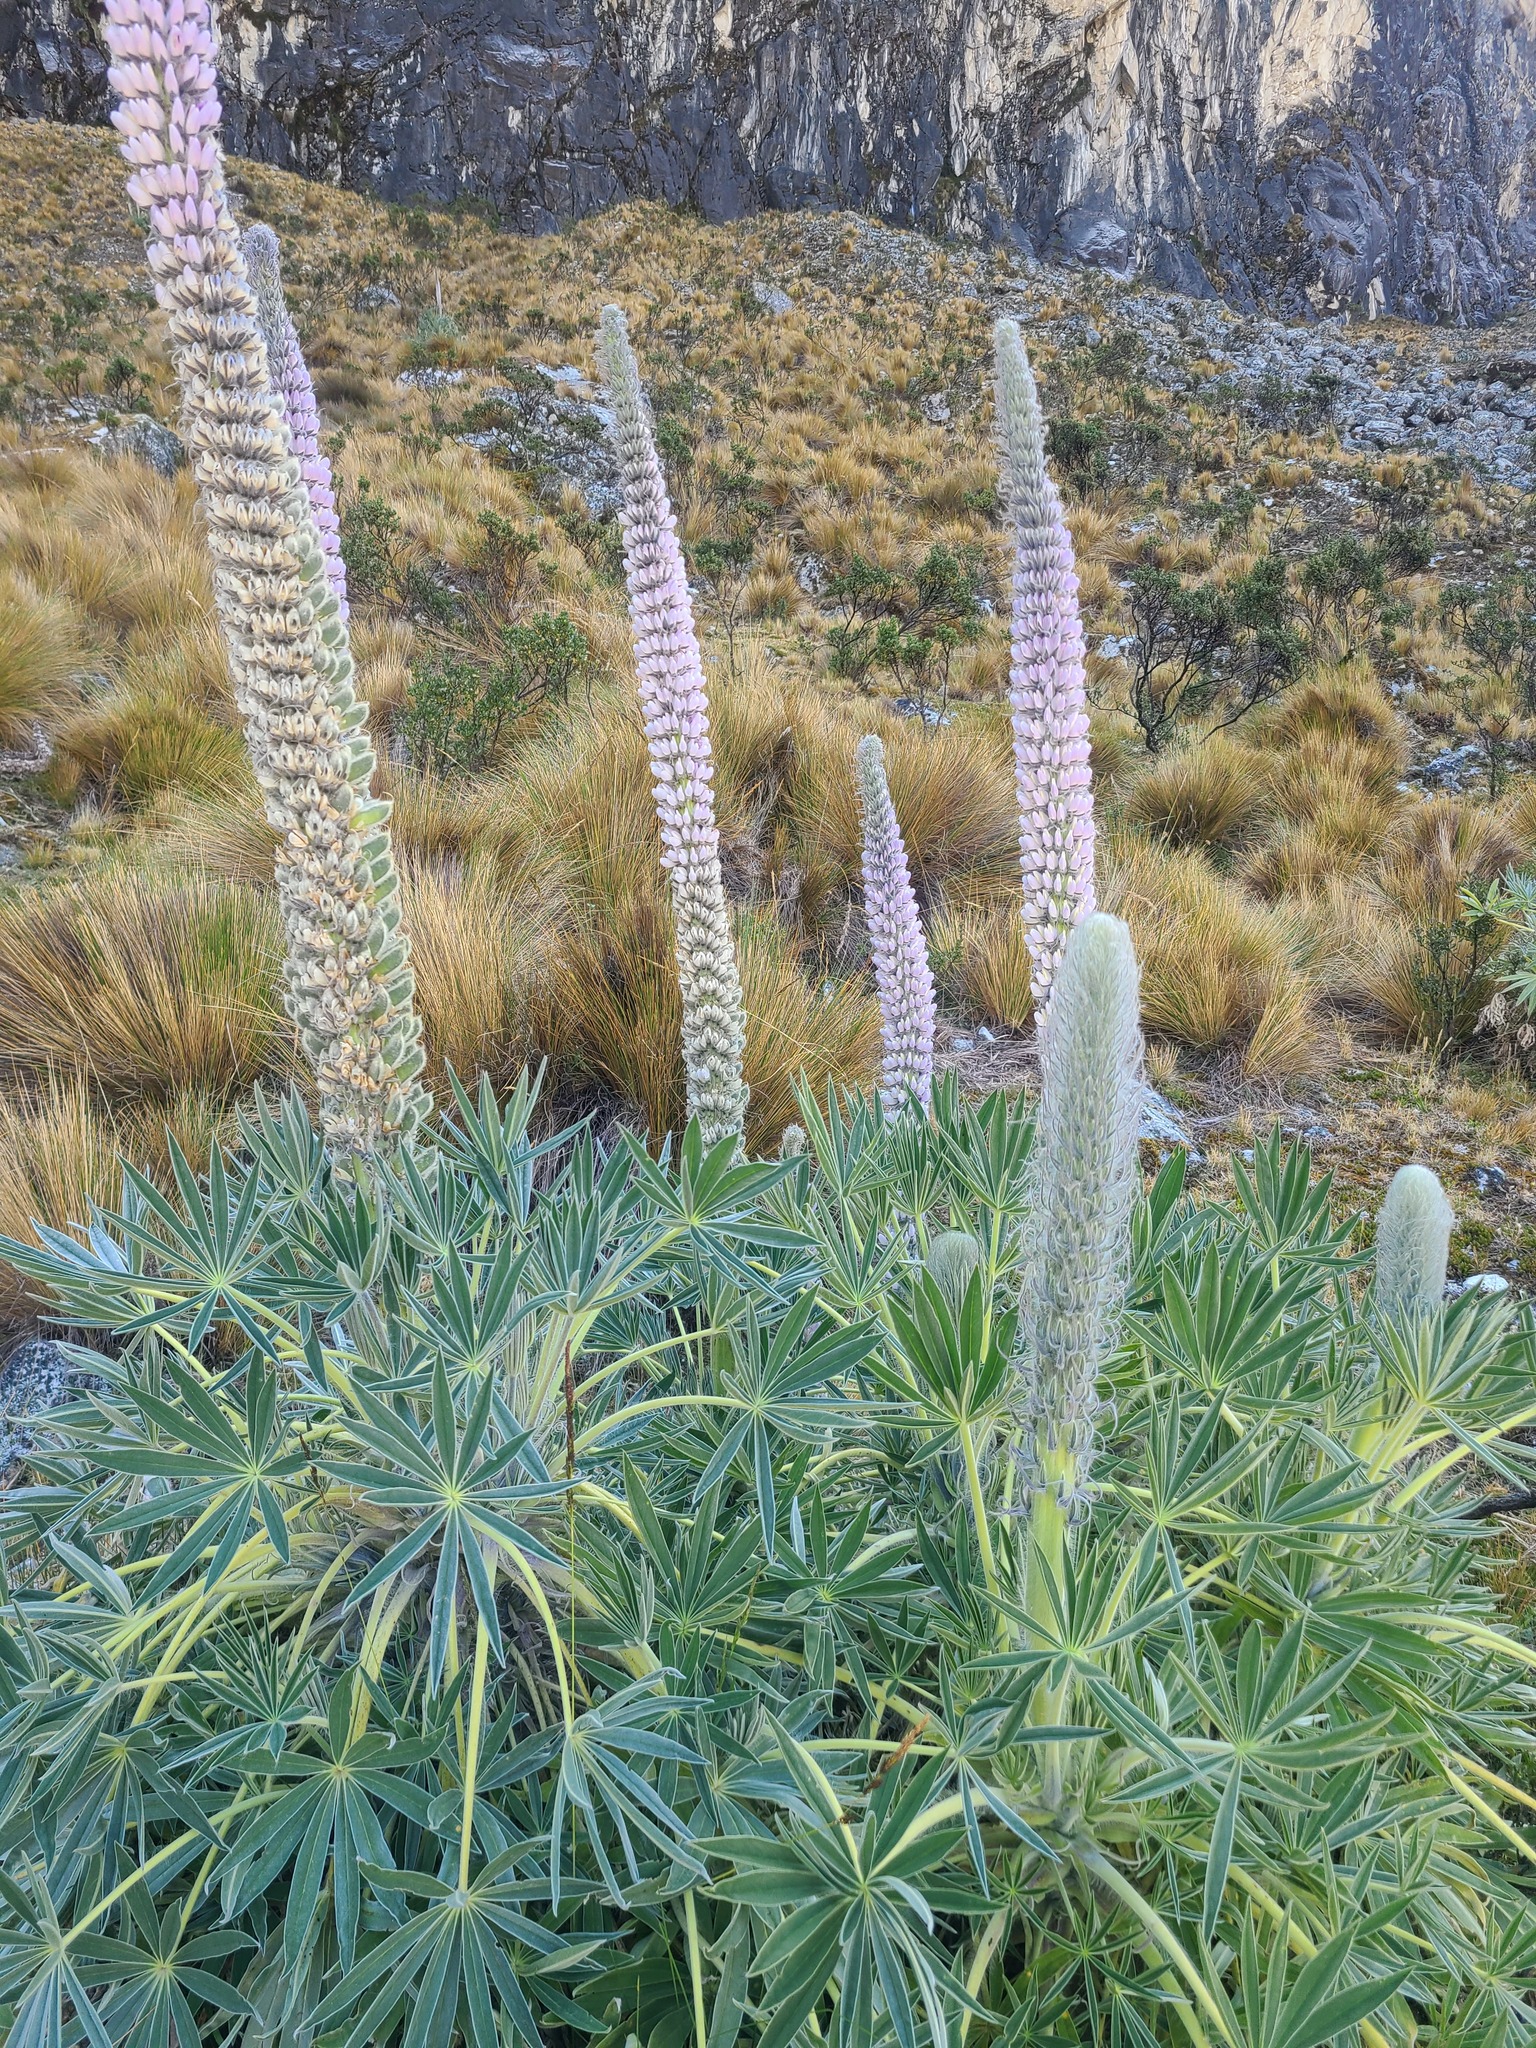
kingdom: Plantae
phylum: Tracheophyta
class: Magnoliopsida
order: Fabales
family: Fabaceae
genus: Lupinus
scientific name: Lupinus weberbaueri
